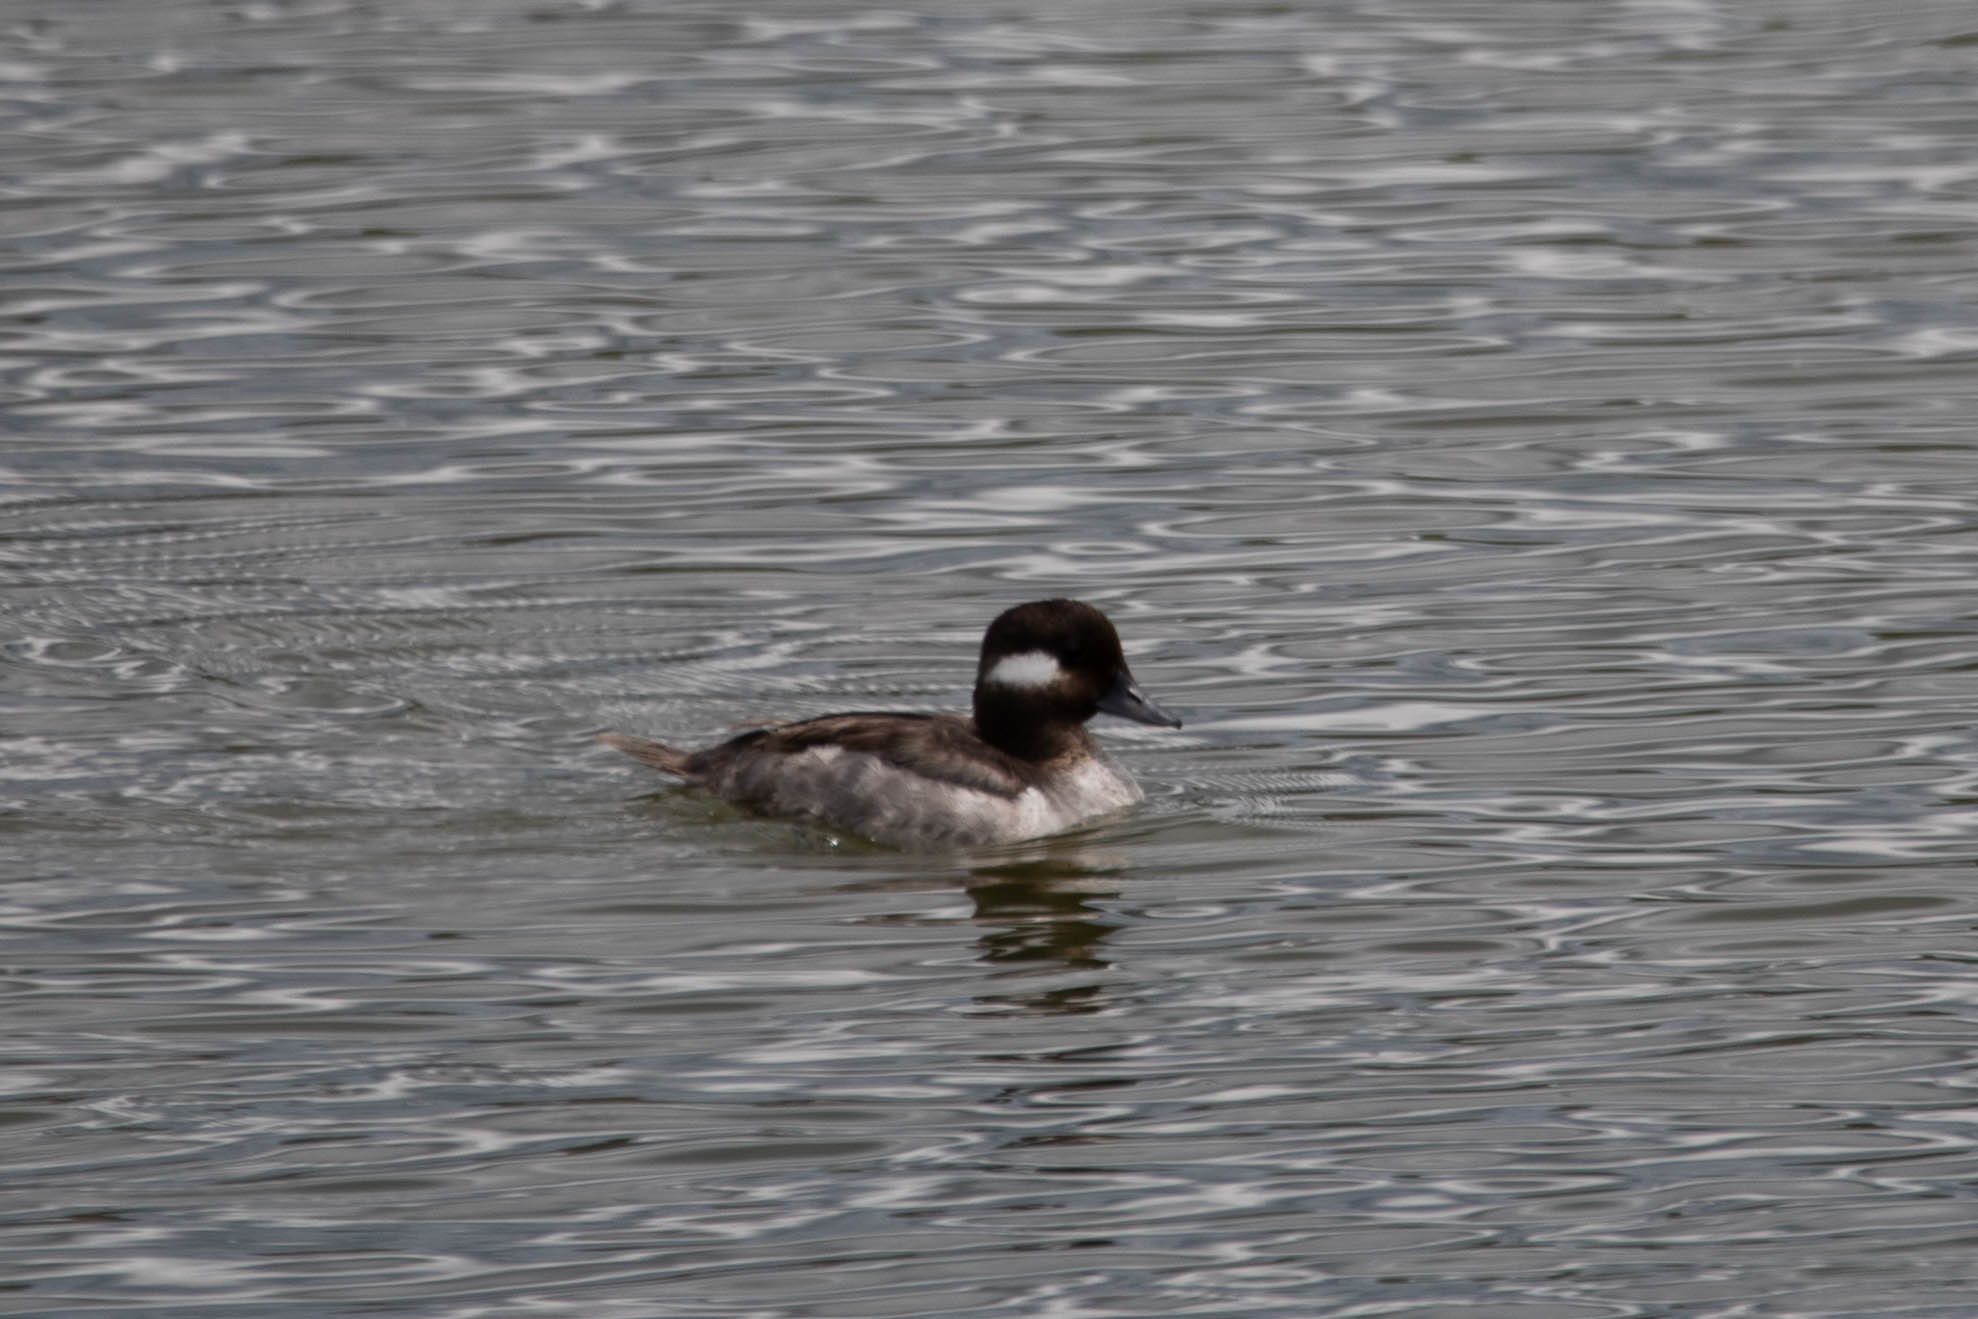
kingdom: Animalia
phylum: Chordata
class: Aves
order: Anseriformes
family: Anatidae
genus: Bucephala
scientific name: Bucephala albeola
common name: Bufflehead
